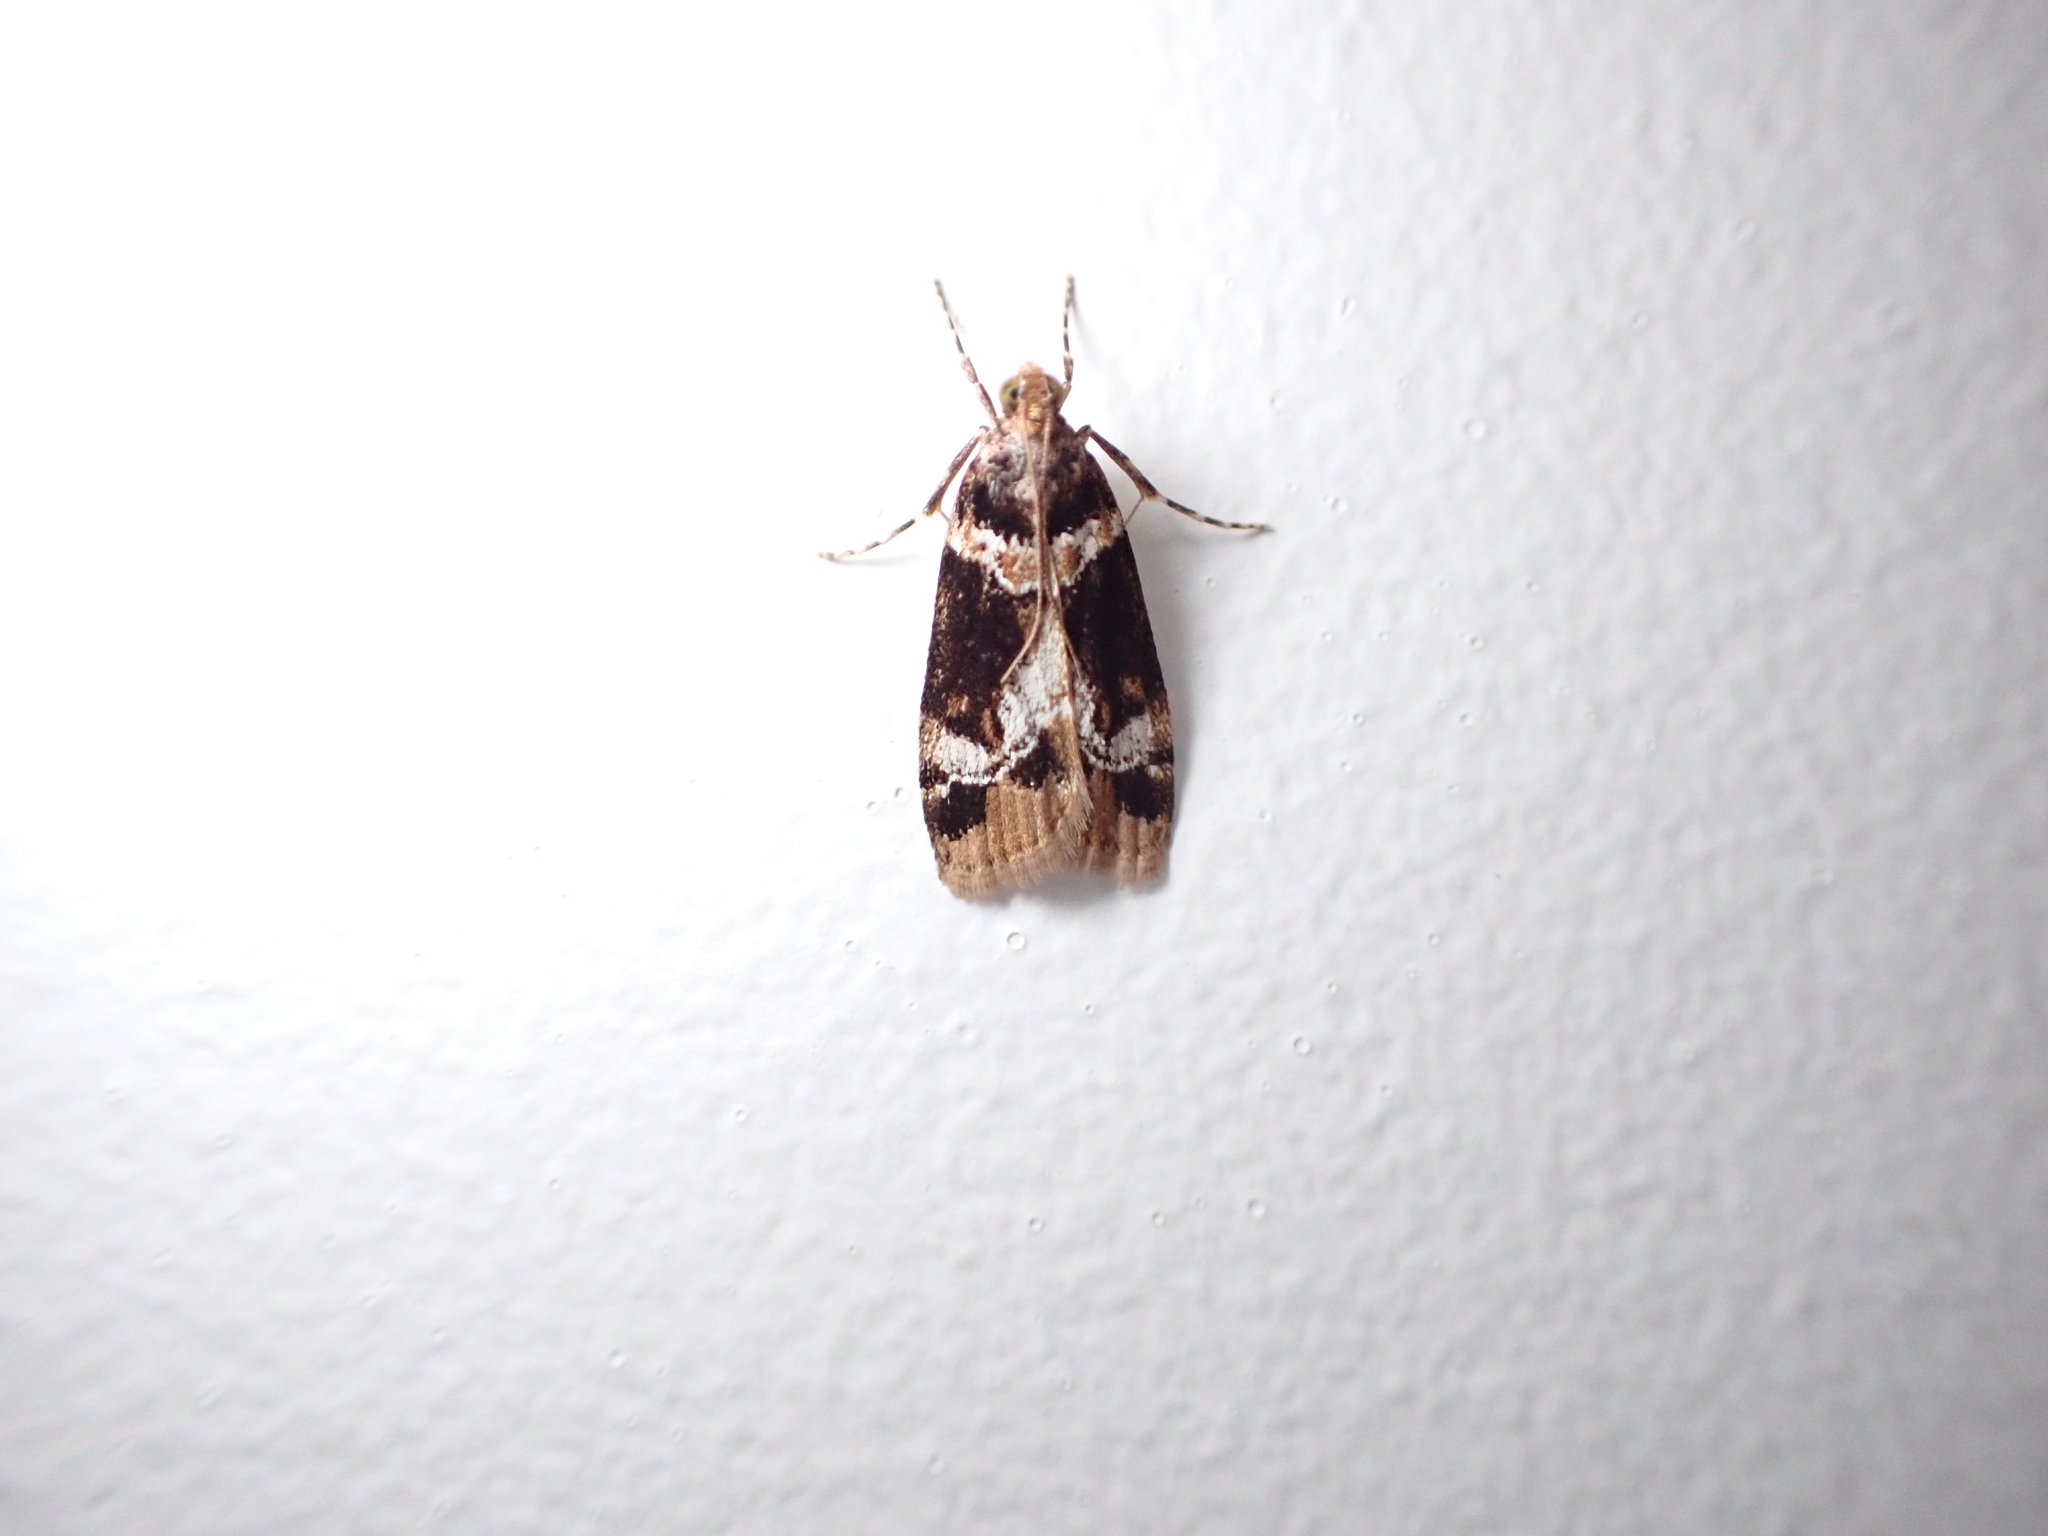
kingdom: Animalia
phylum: Arthropoda
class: Insecta
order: Lepidoptera
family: Crambidae
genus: Eudonia
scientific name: Eudonia zophochlaena
